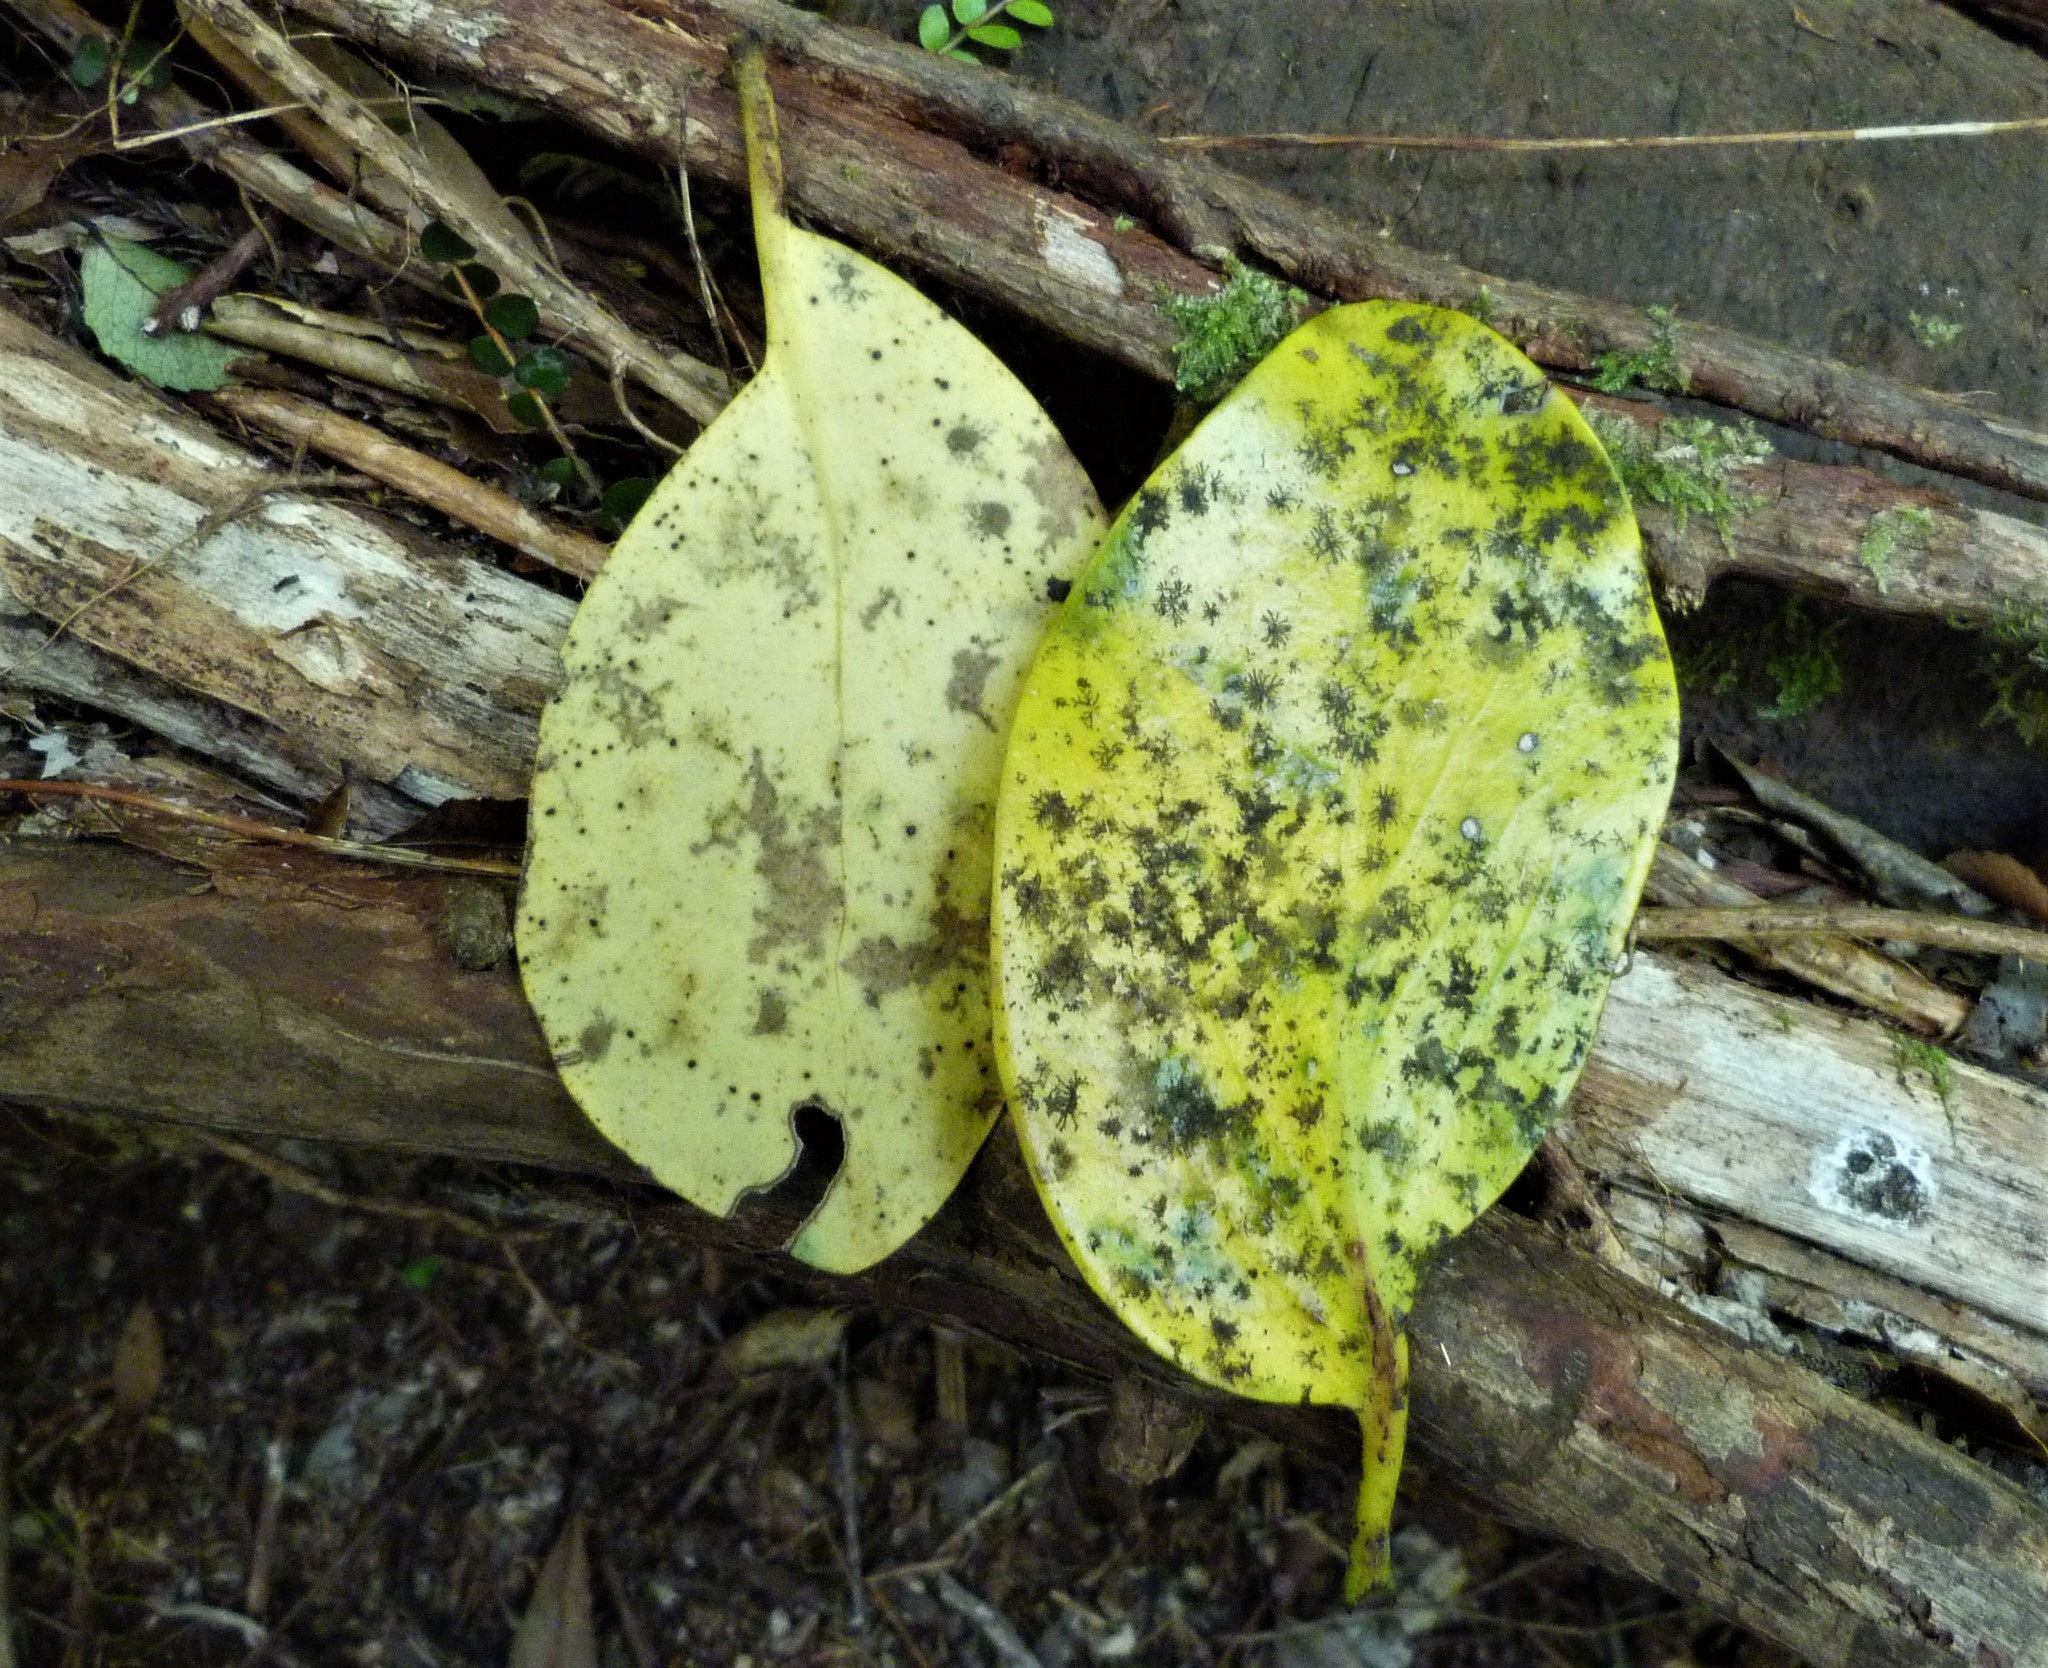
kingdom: Plantae
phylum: Tracheophyta
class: Magnoliopsida
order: Apiales
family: Griseliniaceae
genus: Griselinia
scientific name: Griselinia lucida
